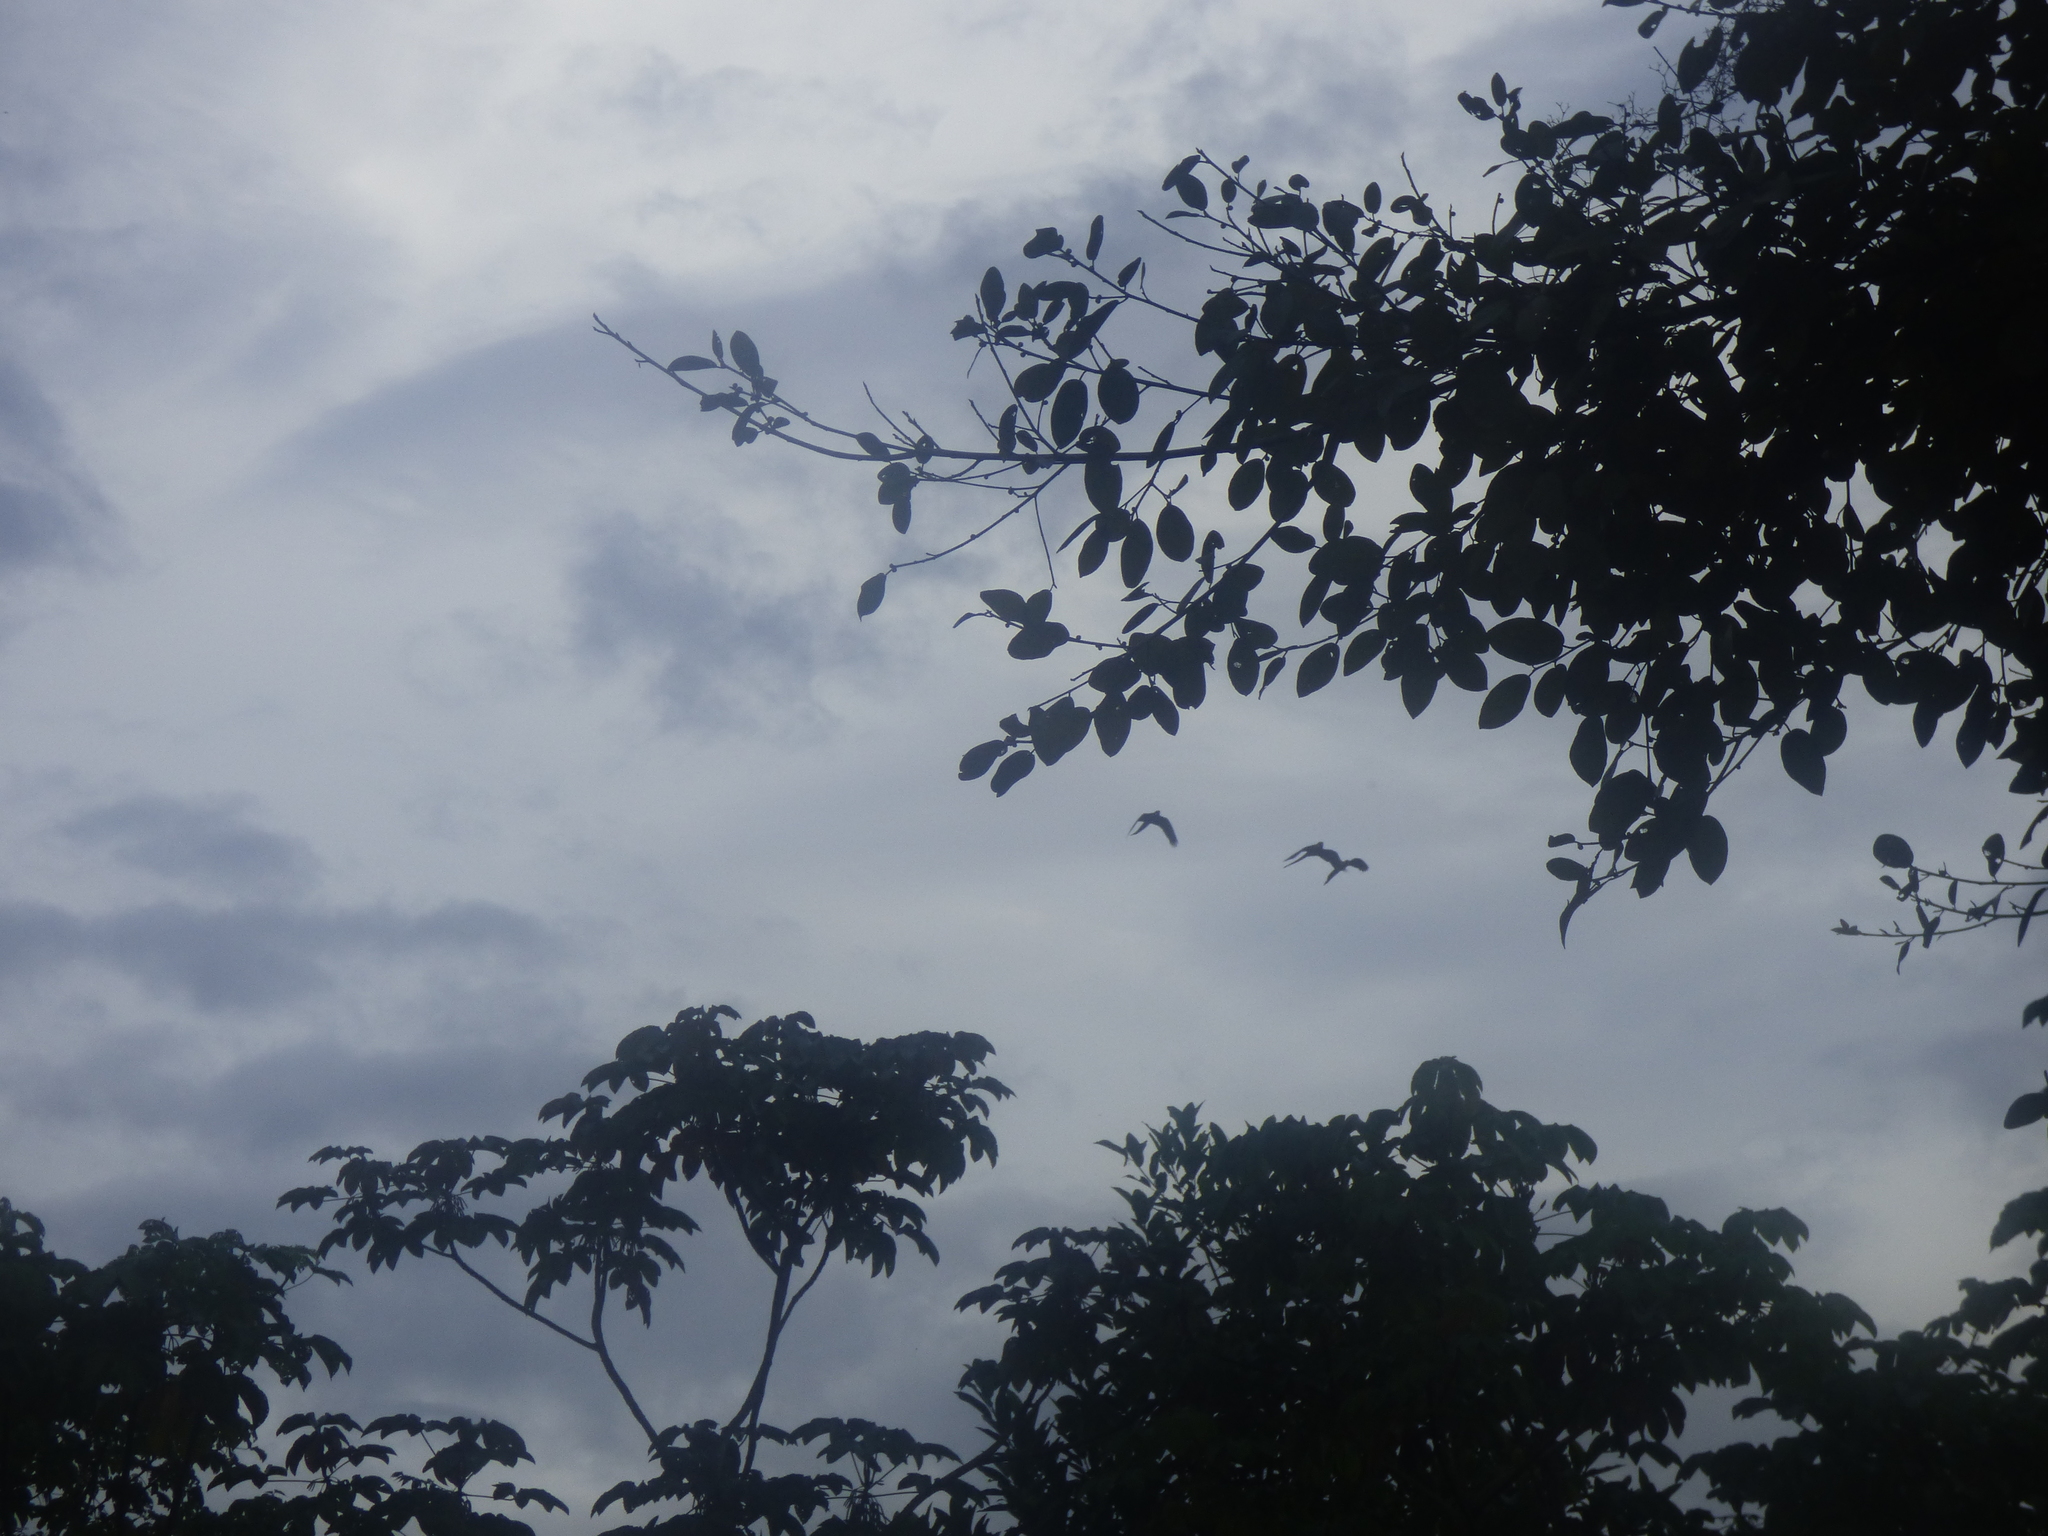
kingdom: Animalia
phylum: Chordata
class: Aves
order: Psittaciformes
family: Psittacidae
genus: Ara
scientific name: Ara ararauna
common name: Blue-and-yellow macaw
